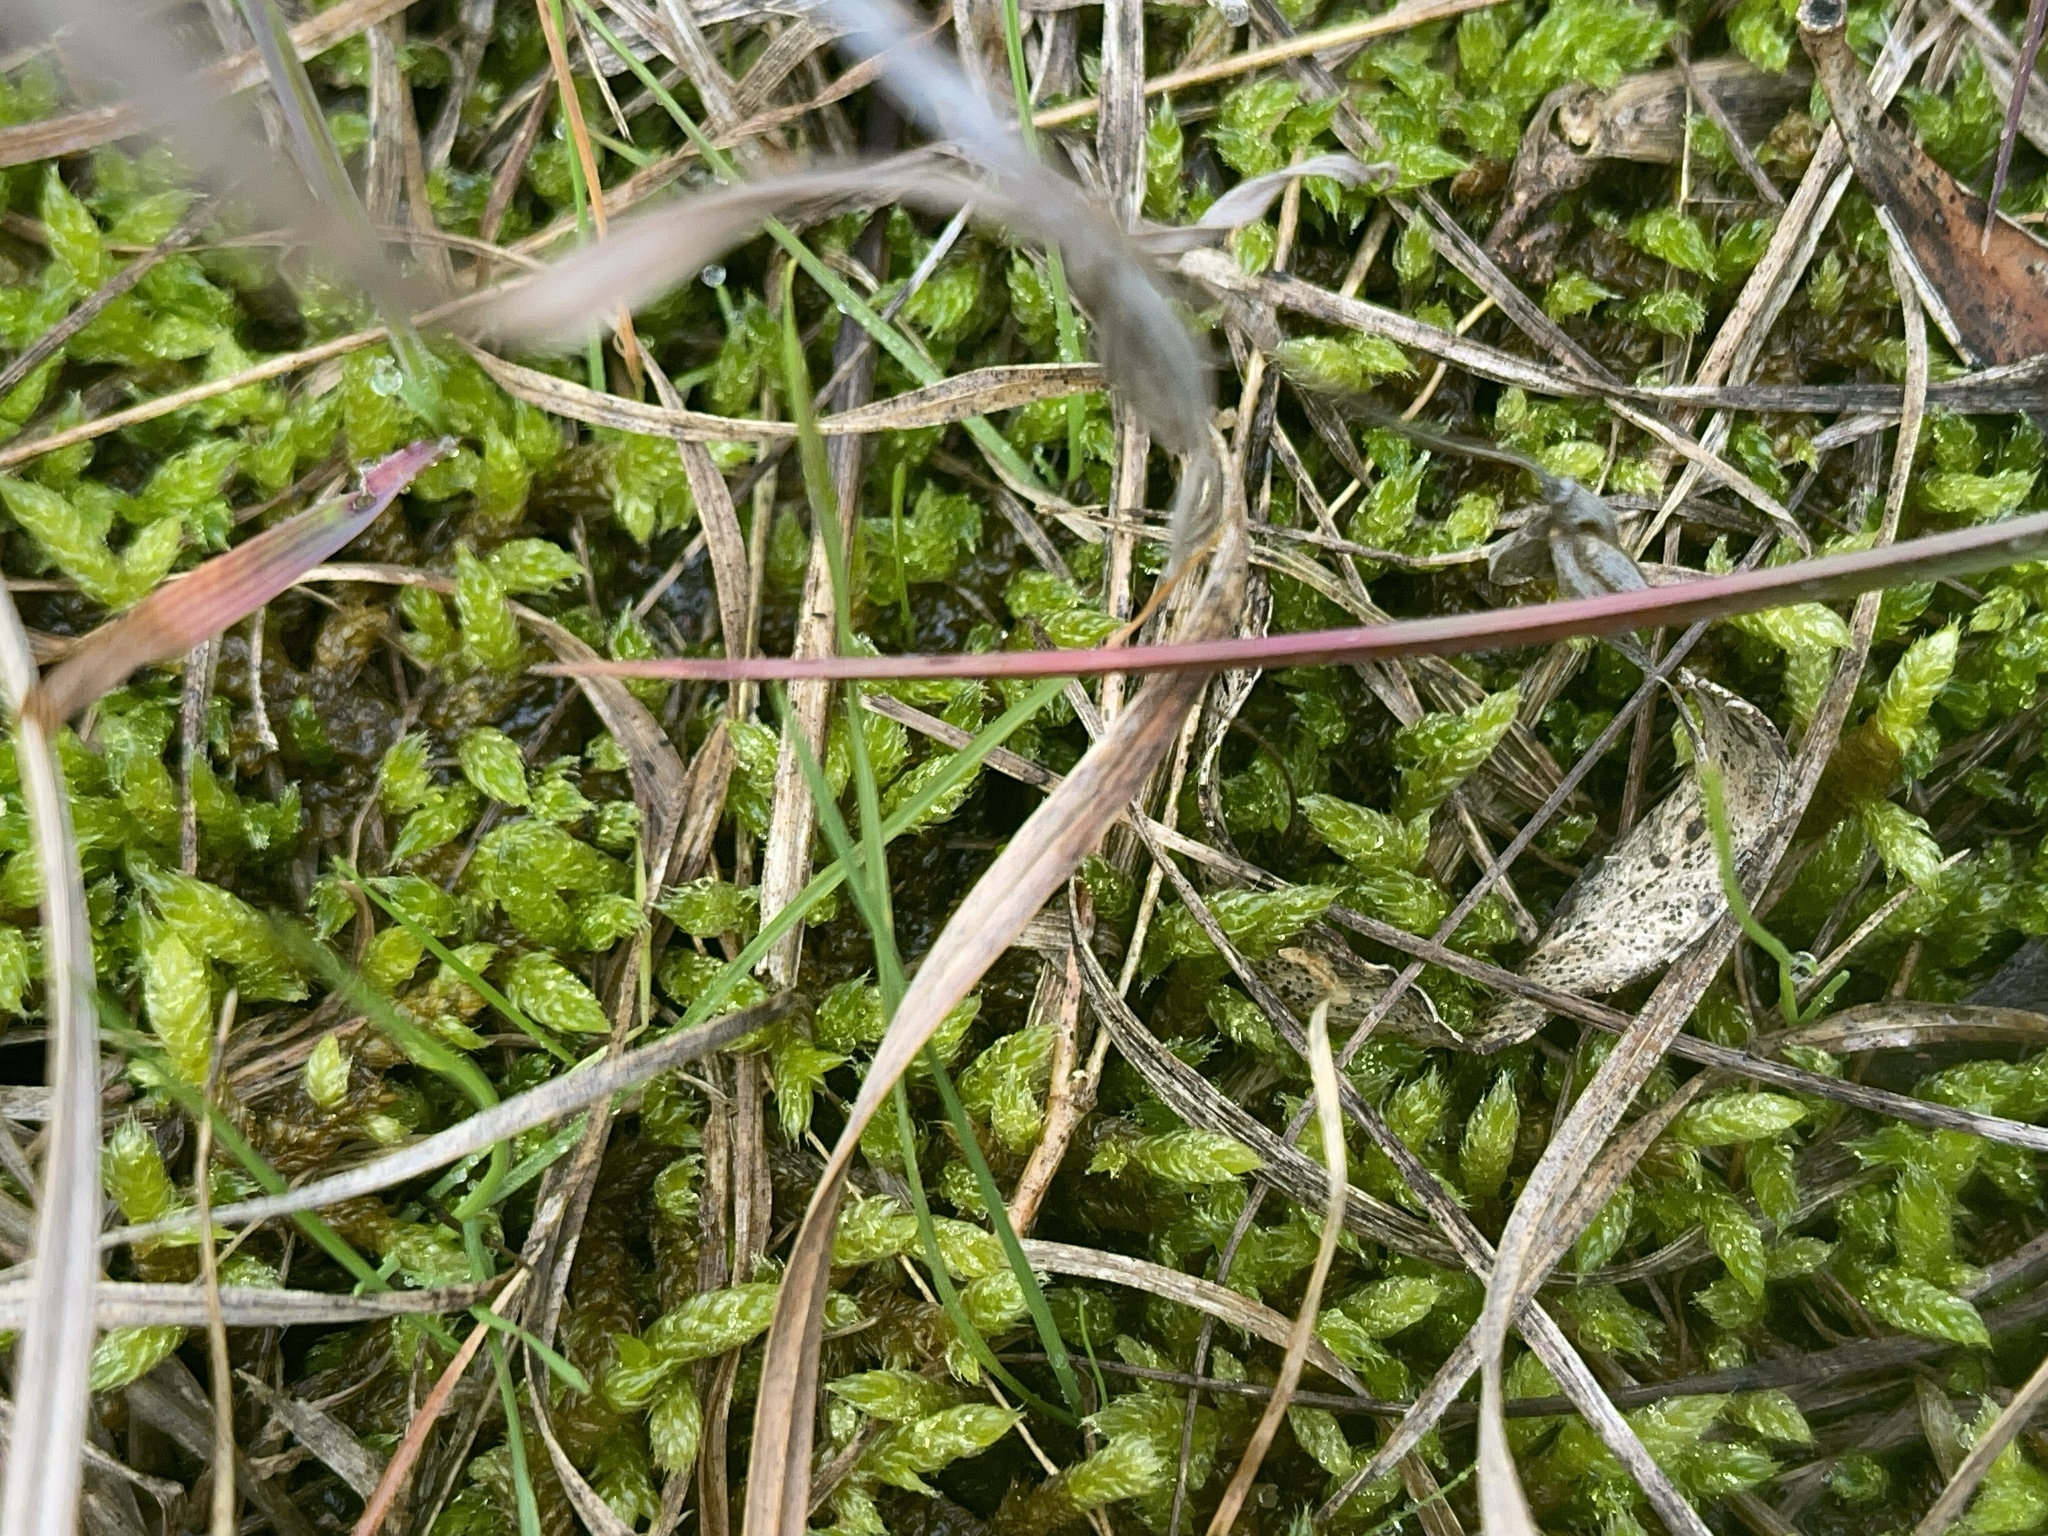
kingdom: Plantae
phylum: Bryophyta
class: Bryopsida
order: Hypnales
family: Hypnaceae
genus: Hypnum
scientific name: Hypnum cupressiforme
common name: Cypress-leaved plait-moss
